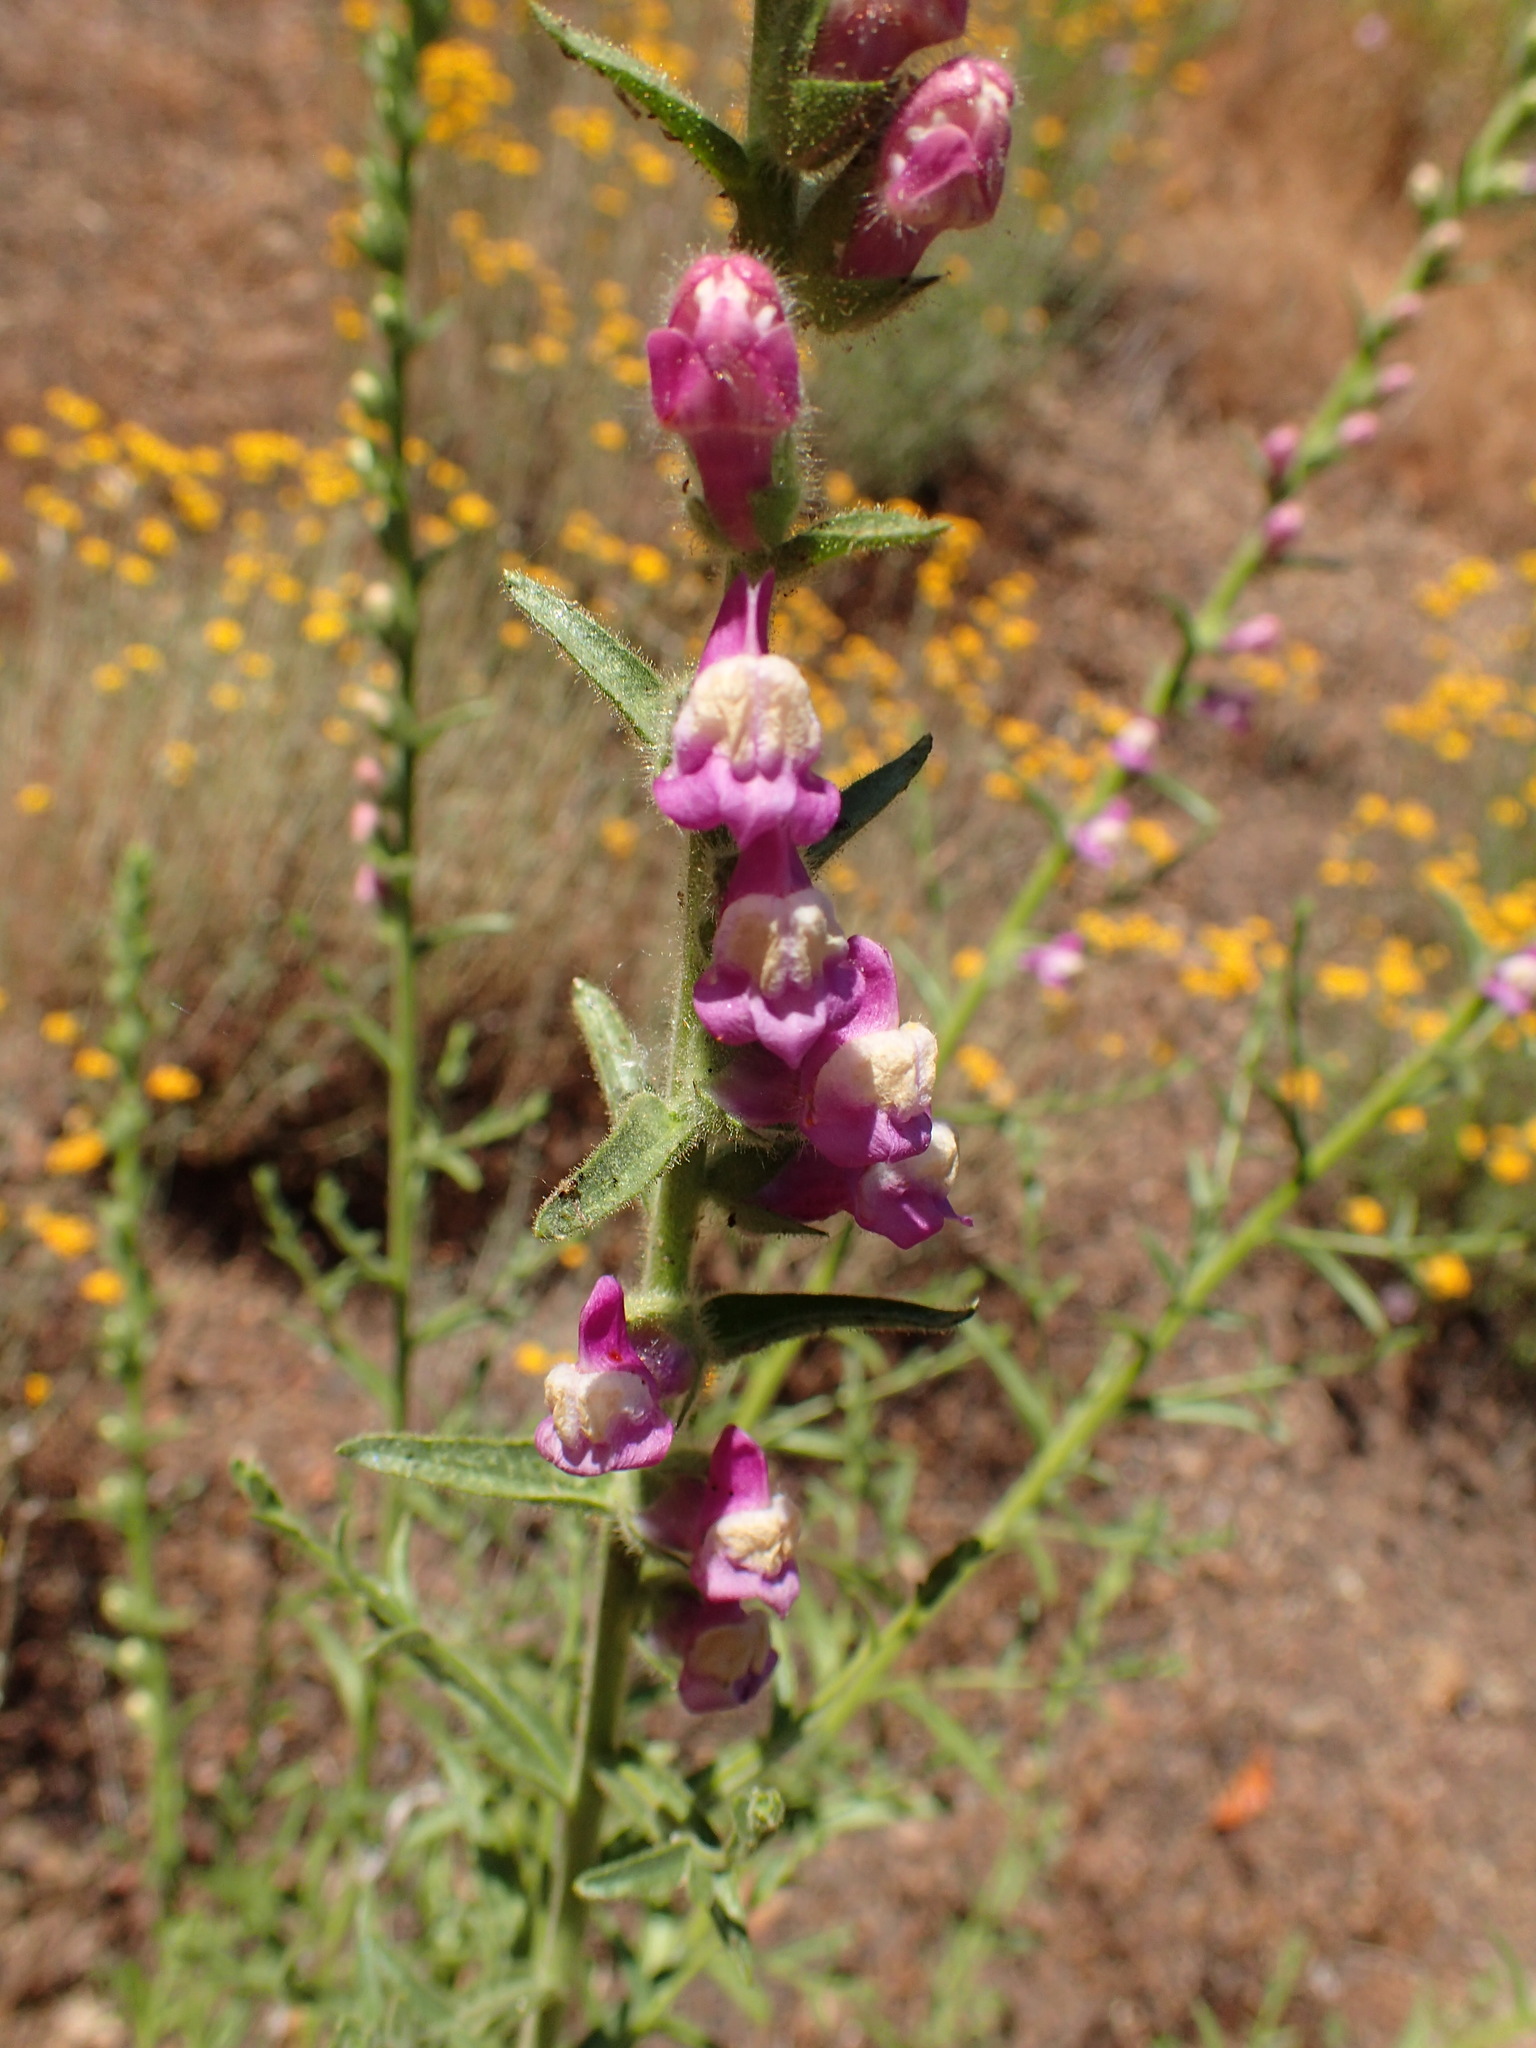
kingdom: Plantae
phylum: Tracheophyta
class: Magnoliopsida
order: Lamiales
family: Plantaginaceae
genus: Sairocarpus
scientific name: Sairocarpus multiflorus
